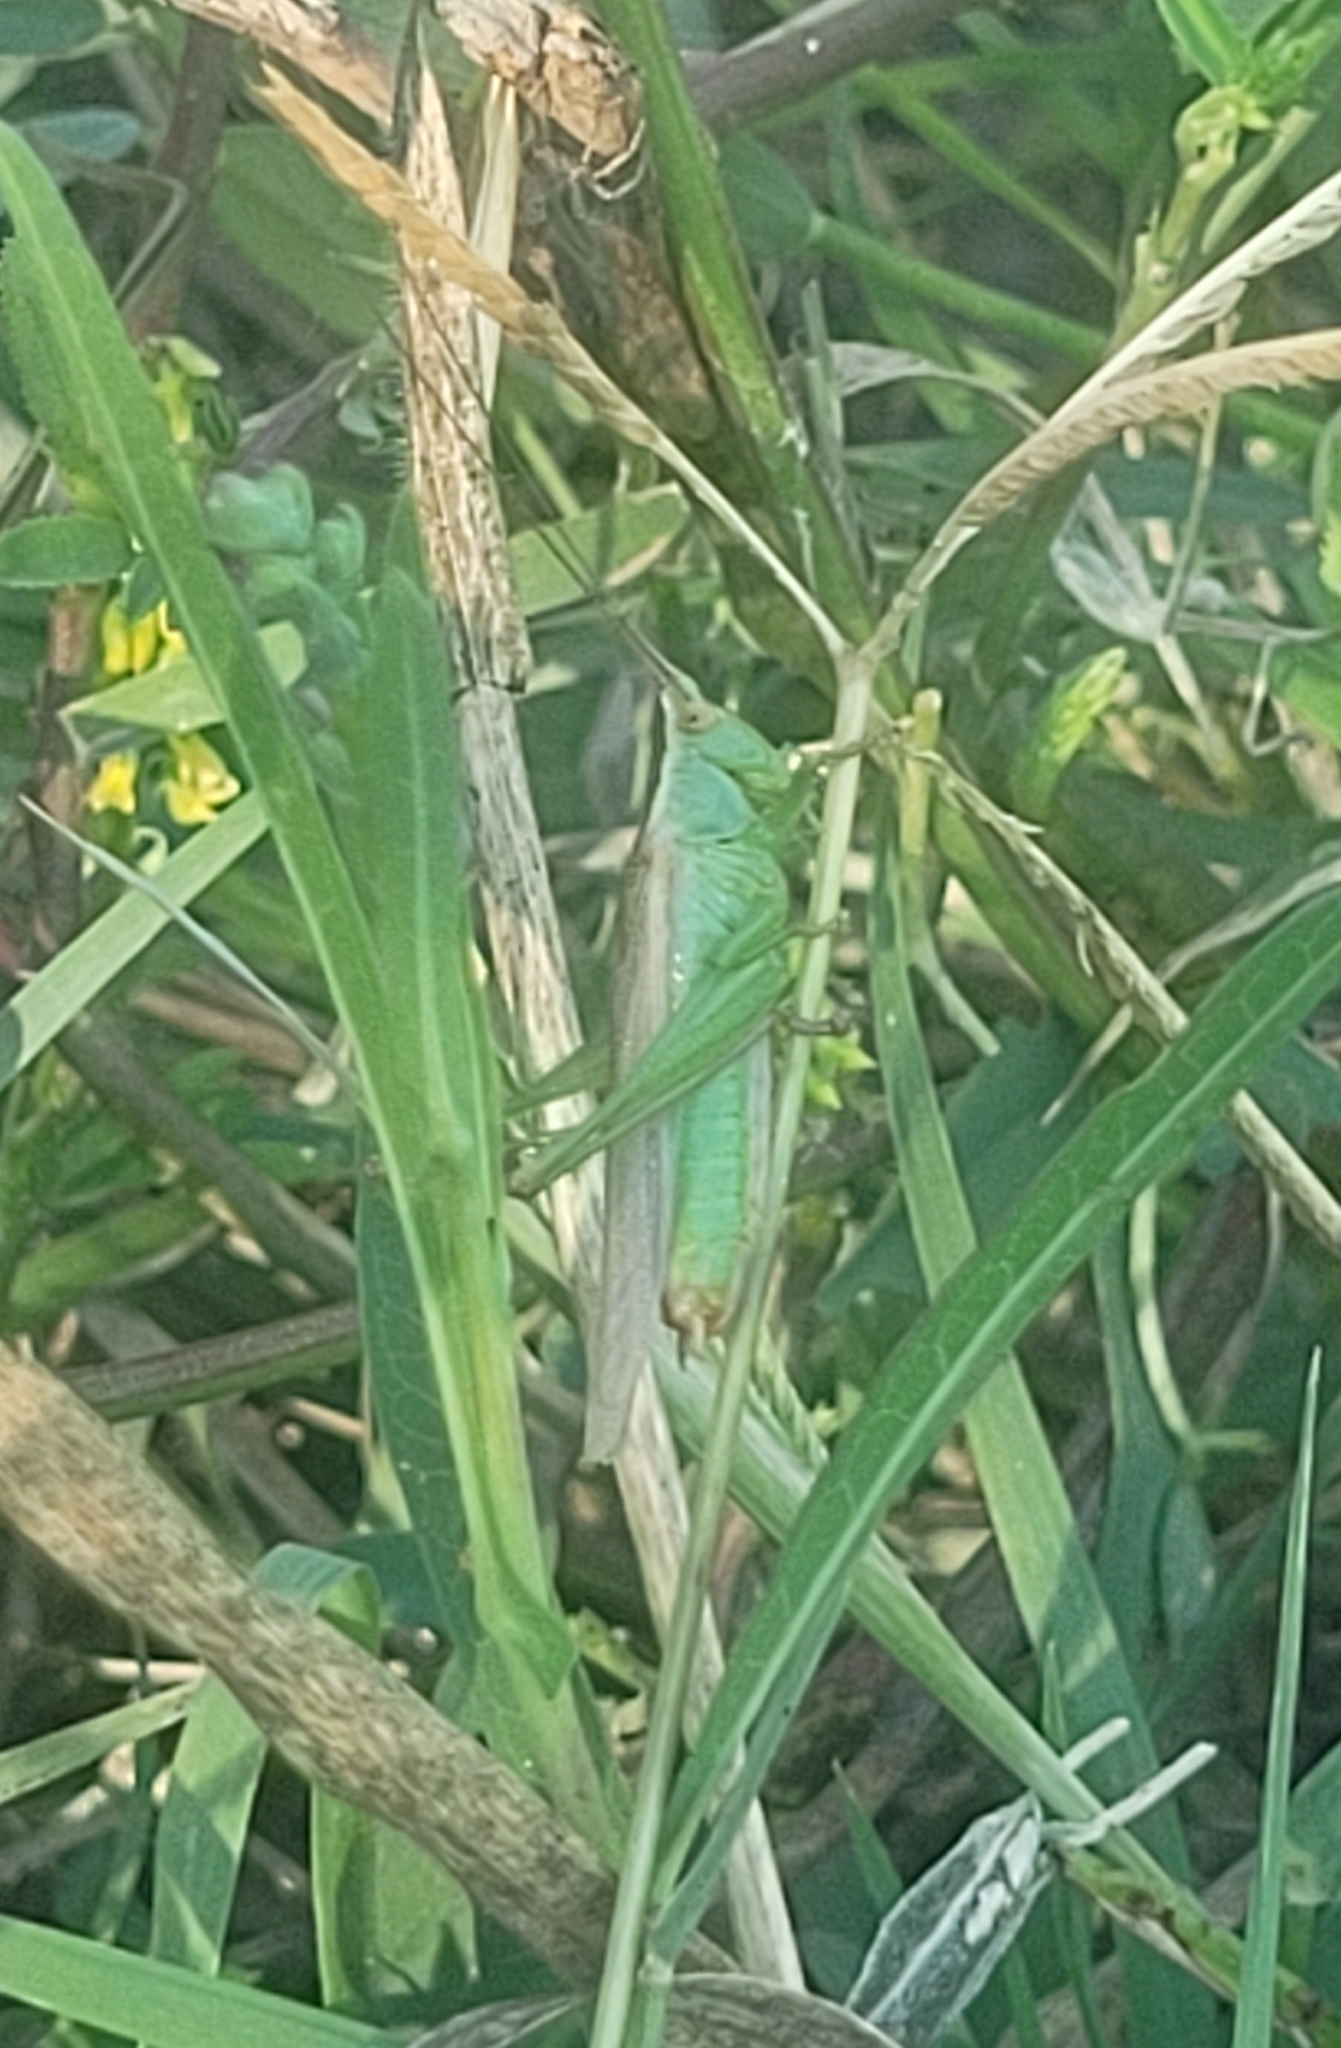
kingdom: Animalia
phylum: Arthropoda
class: Insecta
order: Orthoptera
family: Tettigoniidae
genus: Conocephalus
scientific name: Conocephalus fuscus
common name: Long-winged conehead
